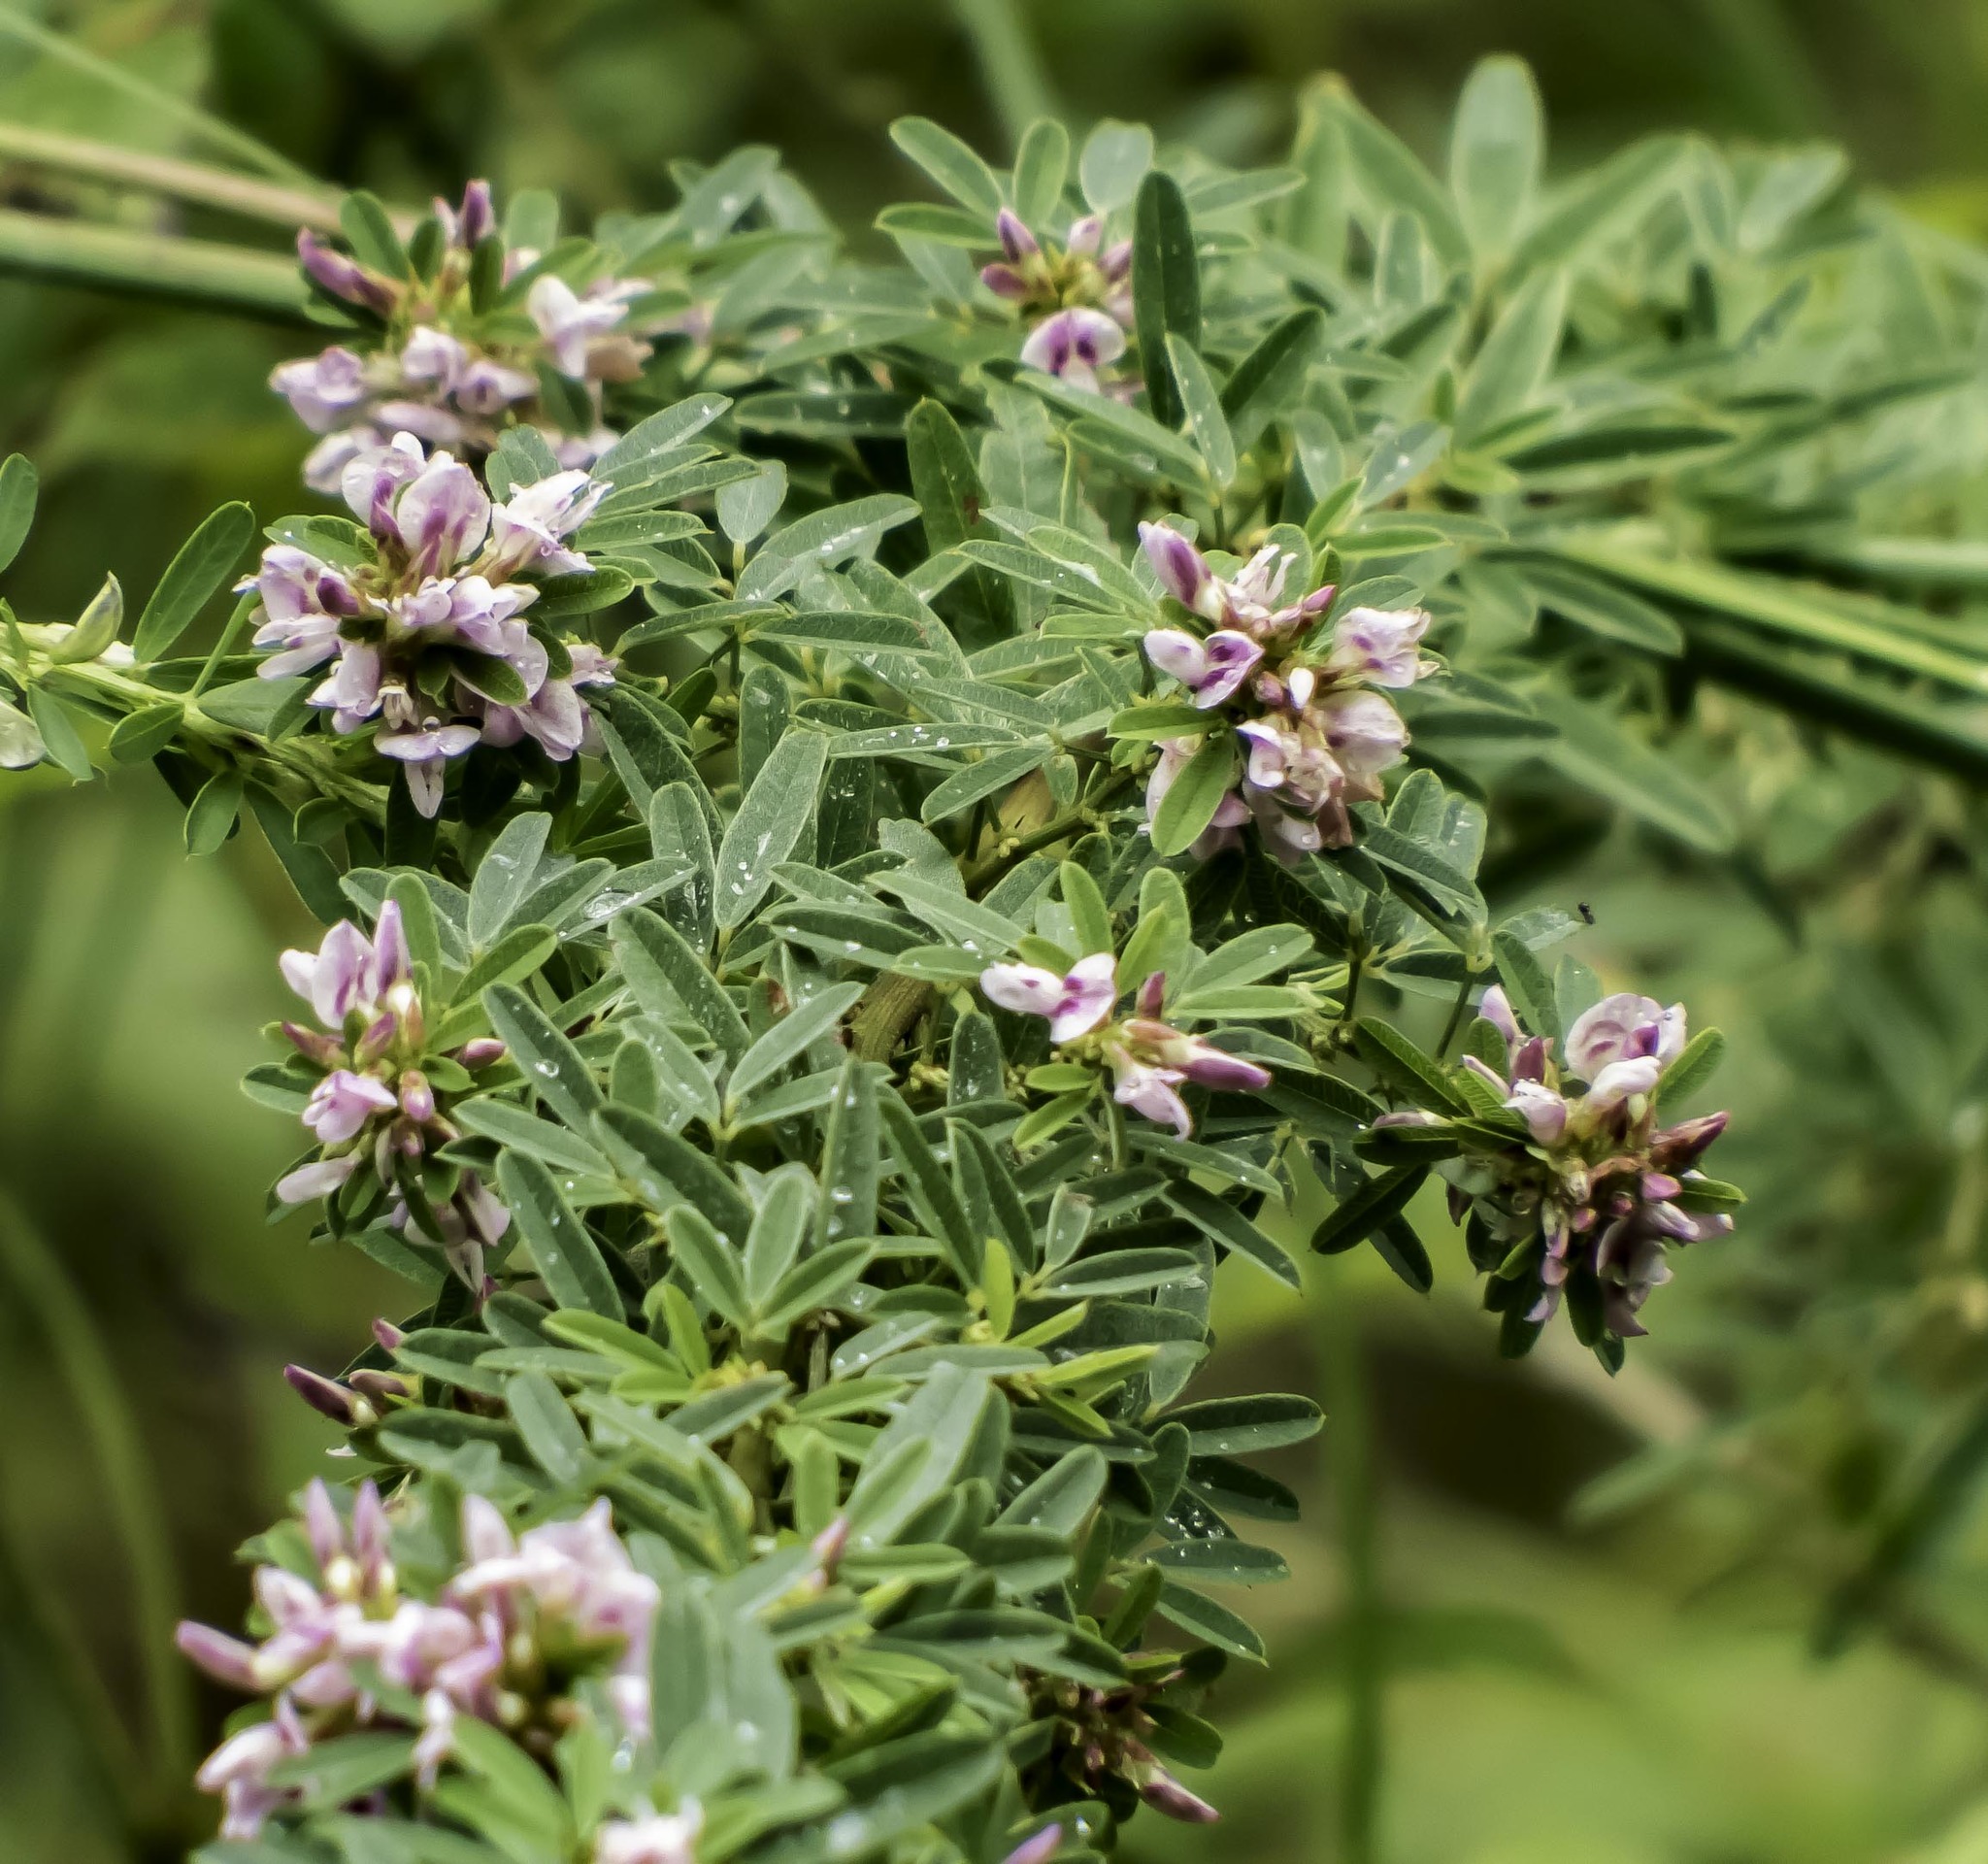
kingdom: Plantae
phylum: Tracheophyta
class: Magnoliopsida
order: Fabales
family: Fabaceae
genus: Lespedeza
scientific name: Lespedeza virginica
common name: Slender bush-clover
